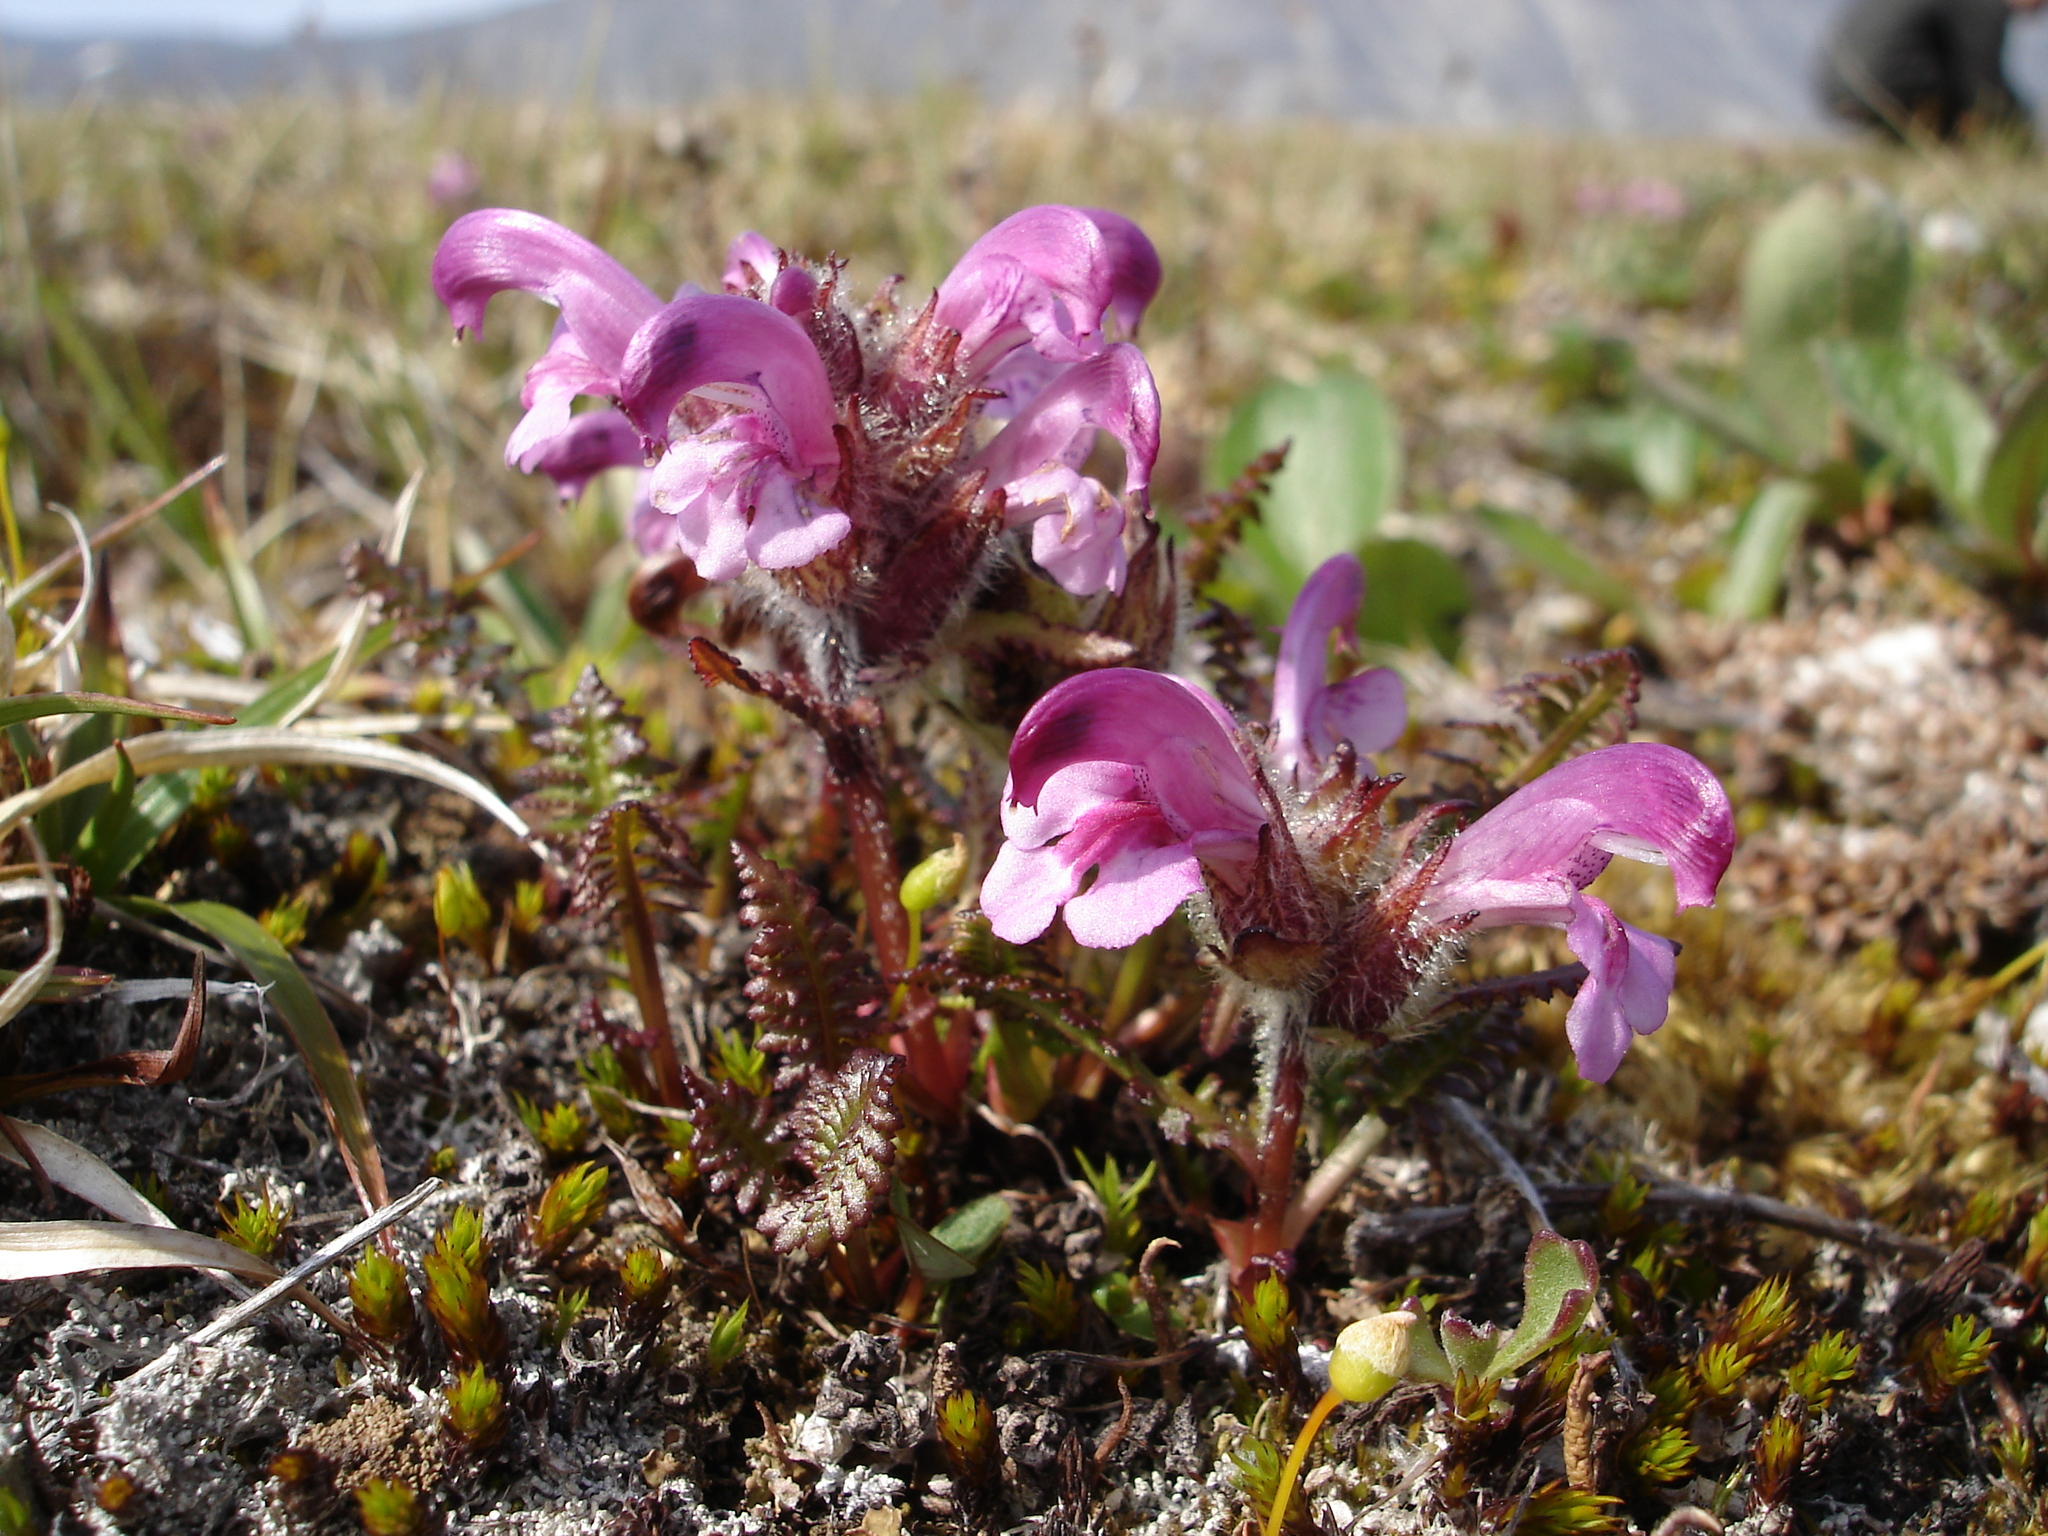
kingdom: Plantae
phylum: Tracheophyta
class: Magnoliopsida
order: Lamiales
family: Orobanchaceae
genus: Pedicularis
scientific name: Pedicularis langsdorffii
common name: Langsdorff's lousewort
